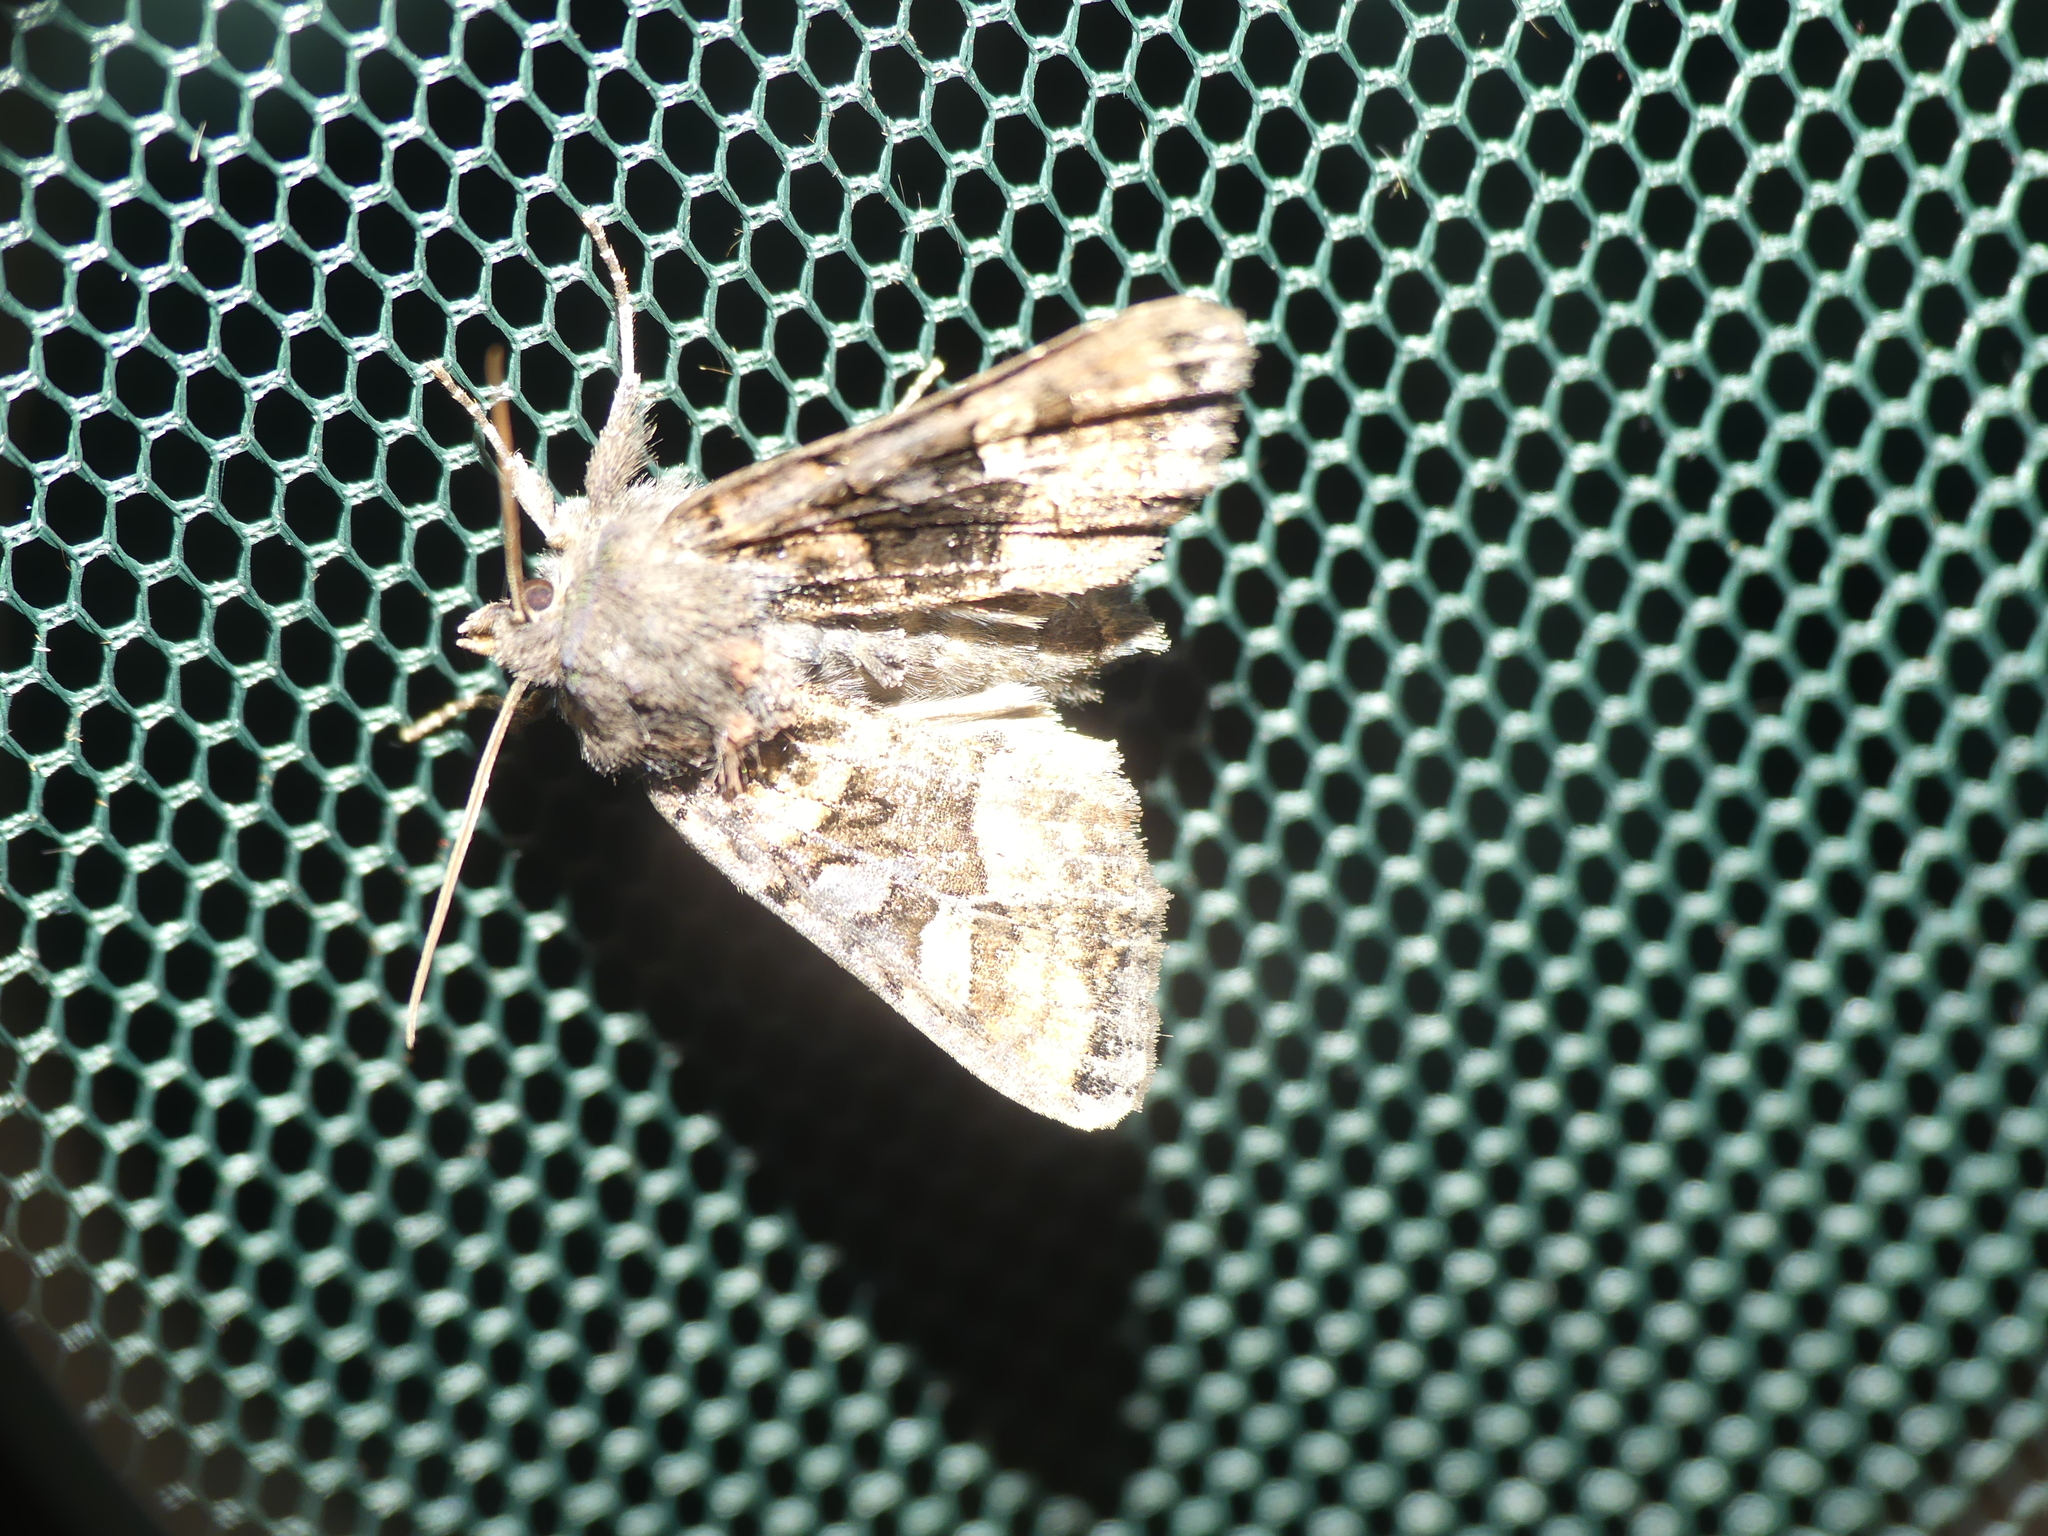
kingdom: Animalia
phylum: Arthropoda
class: Insecta
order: Lepidoptera
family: Noctuidae
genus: Euplexia
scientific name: Euplexia lucipara
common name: Small angle shades
